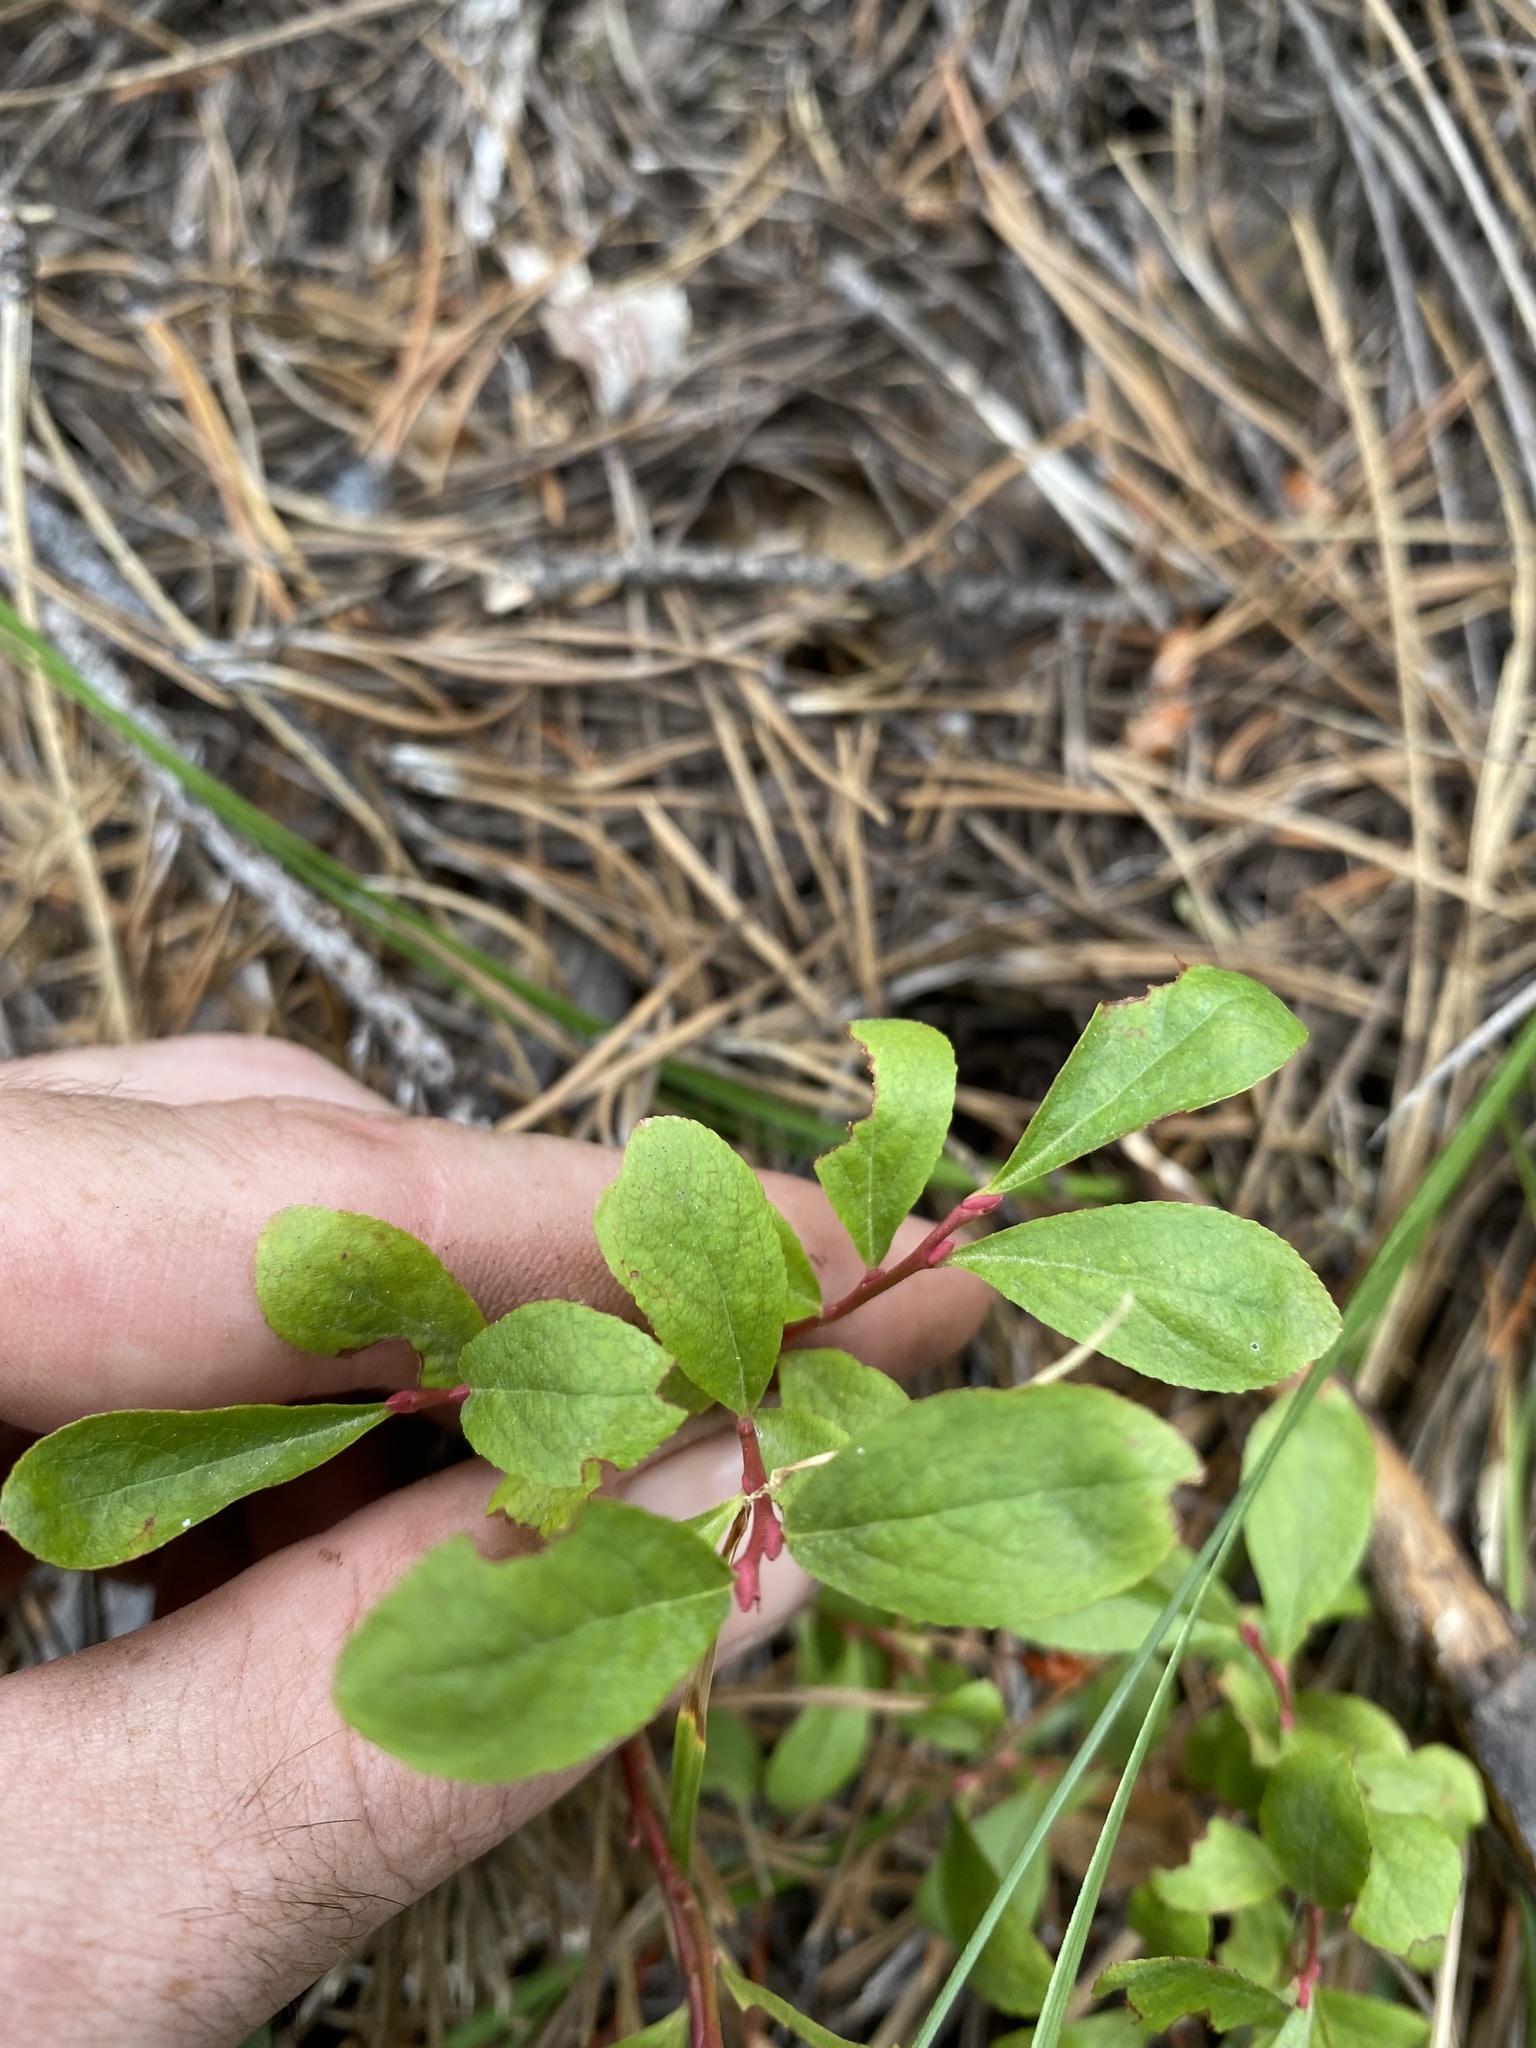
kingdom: Plantae
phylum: Tracheophyta
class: Magnoliopsida
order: Ericales
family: Ericaceae
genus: Vaccinium
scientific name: Vaccinium cespitosum
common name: Dwarf bilberry
